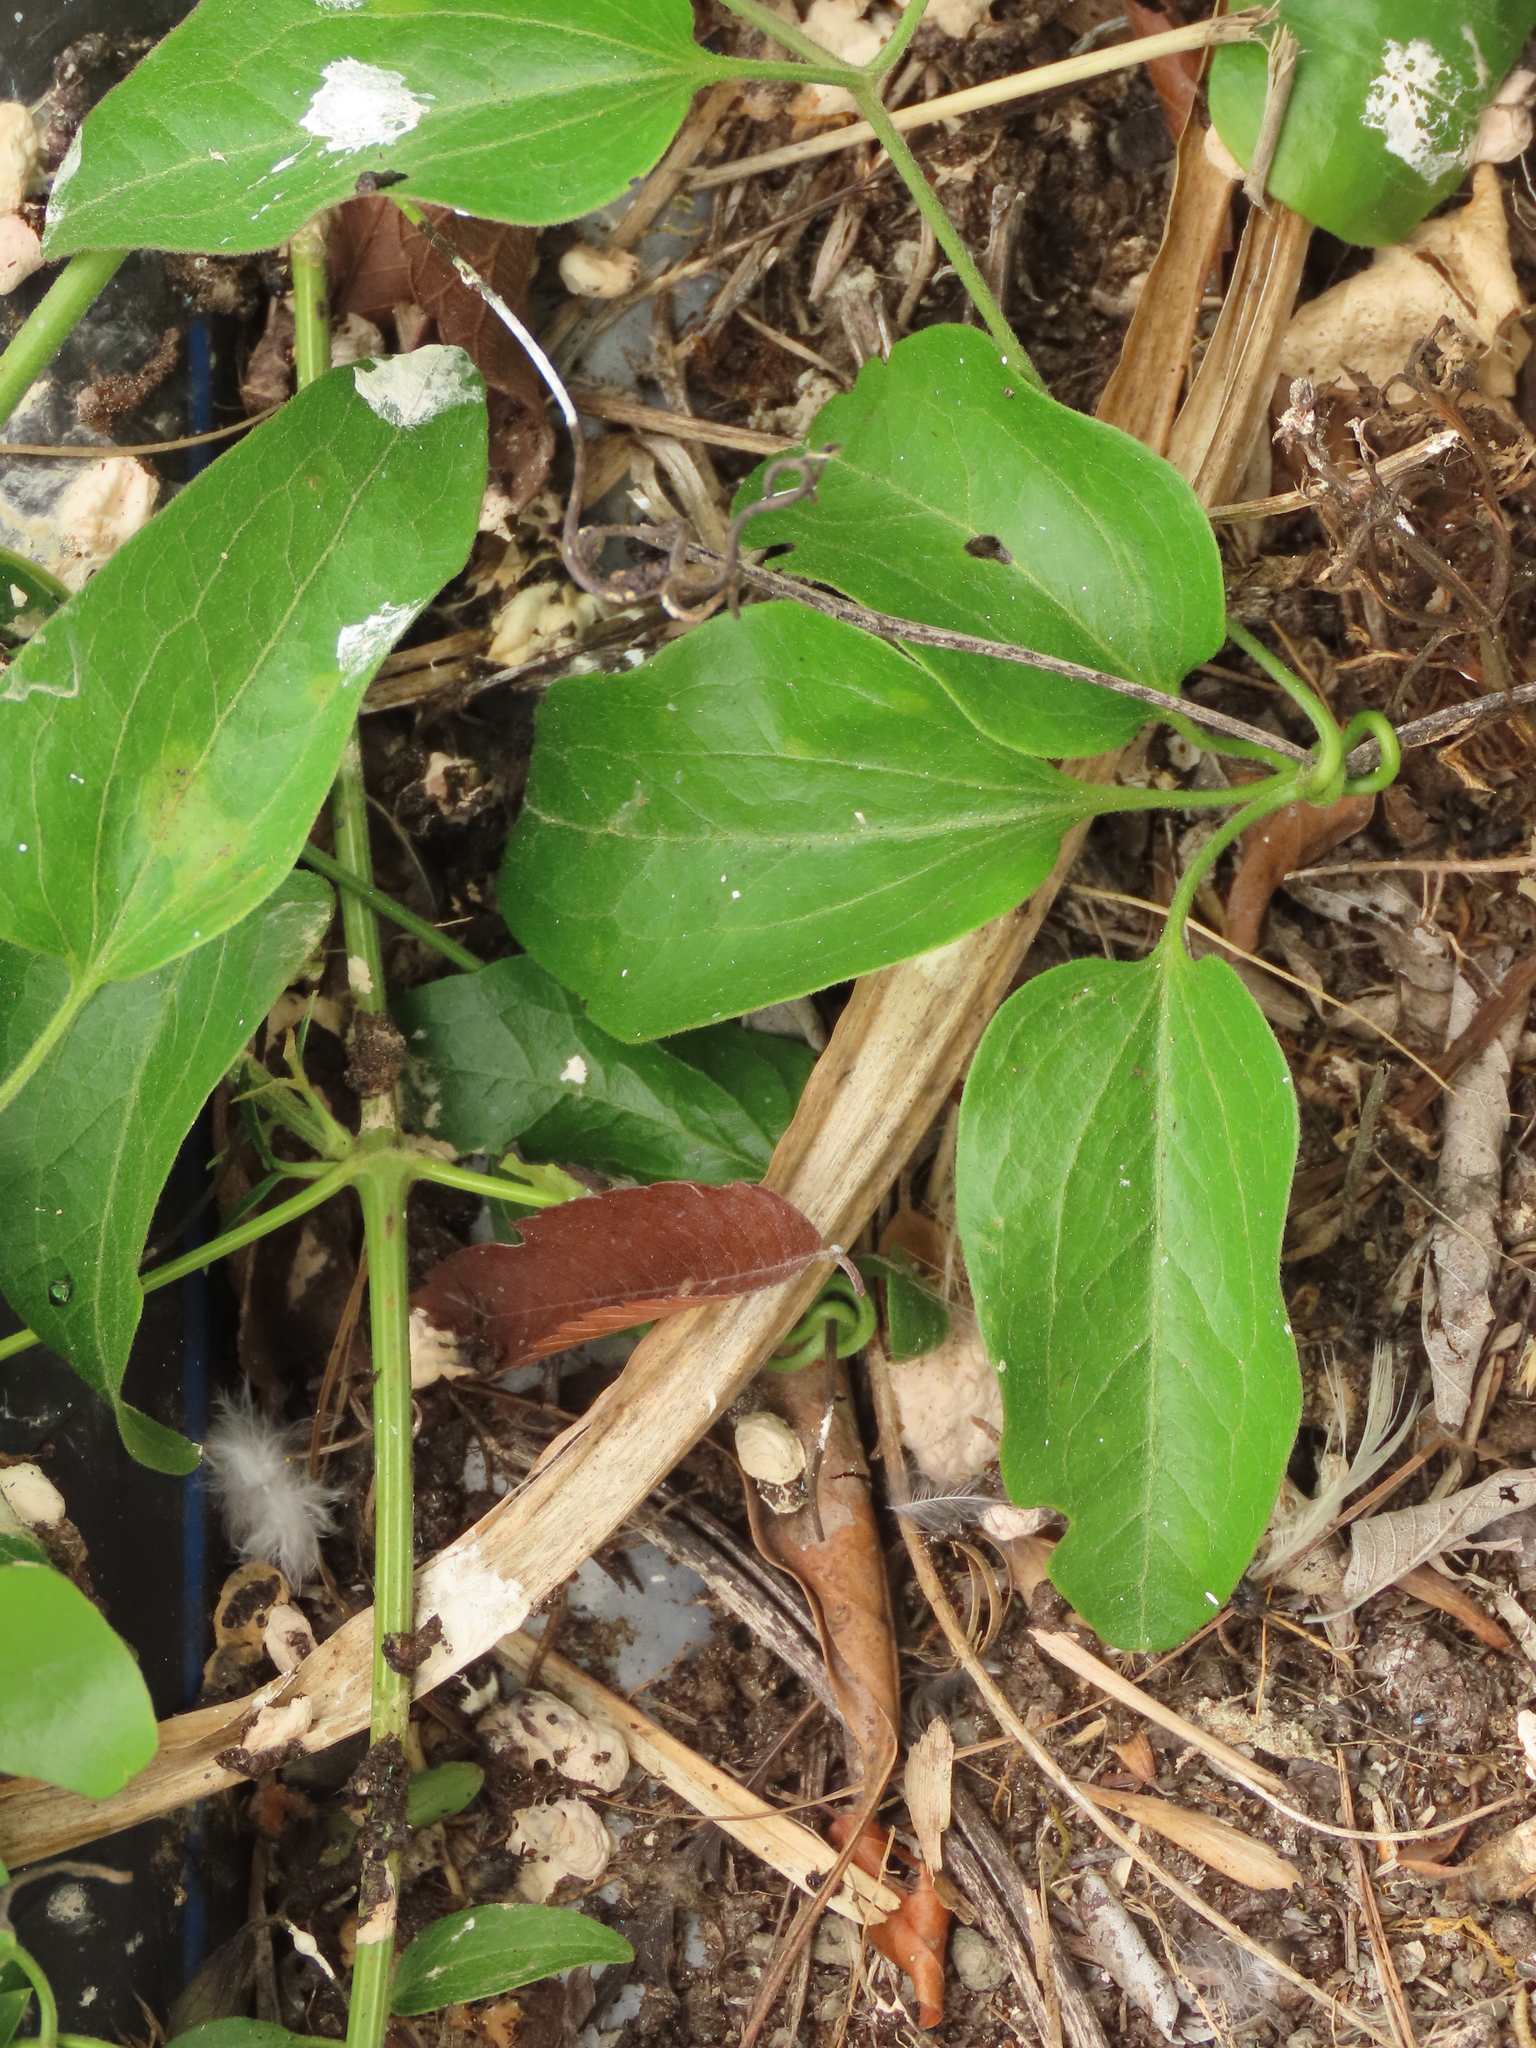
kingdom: Plantae
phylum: Tracheophyta
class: Magnoliopsida
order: Ranunculales
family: Ranunculaceae
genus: Clematis
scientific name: Clematis chinensis
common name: Chinese clematis
